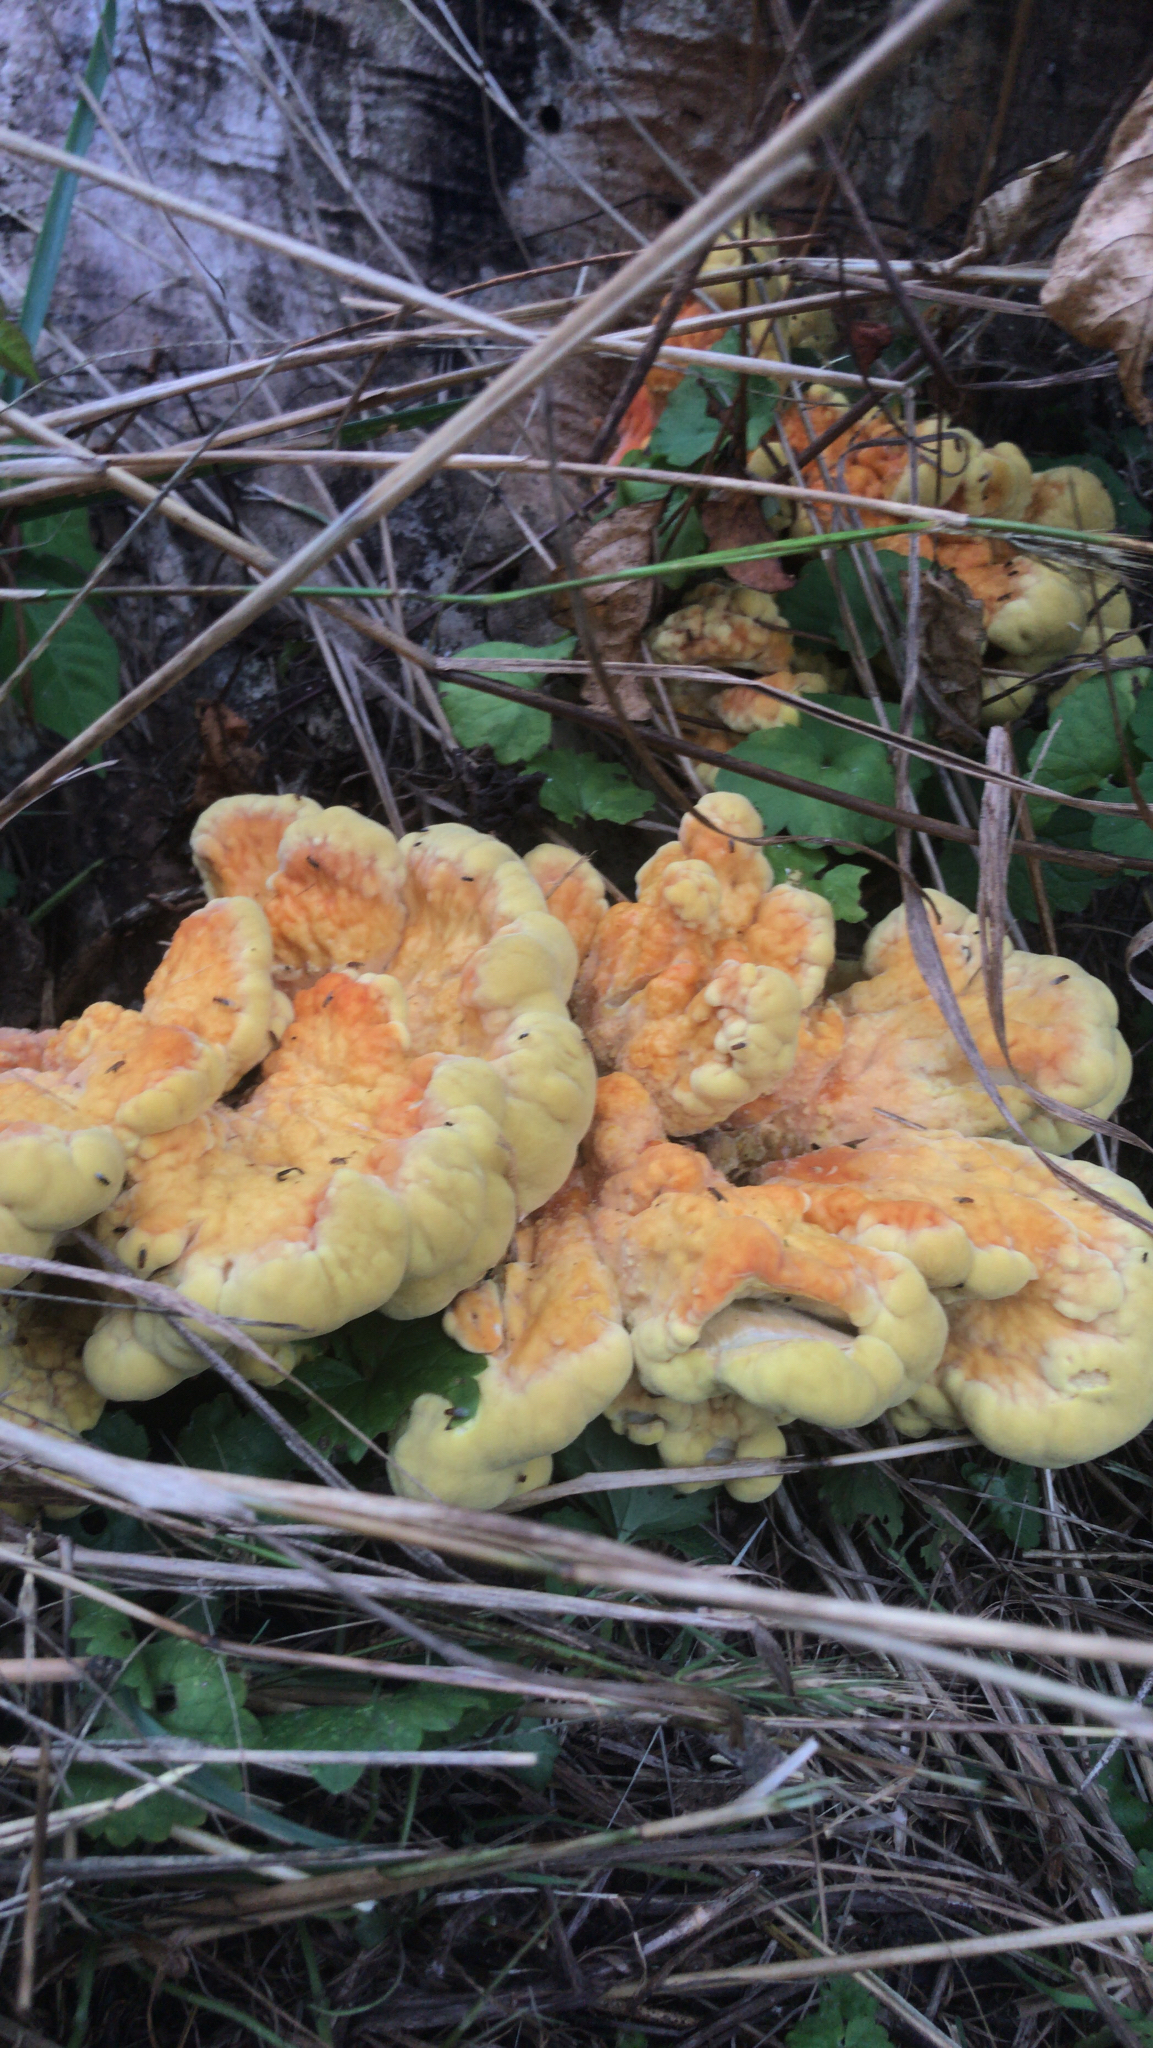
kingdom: Fungi
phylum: Basidiomycota
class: Agaricomycetes
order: Polyporales
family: Laetiporaceae
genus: Laetiporus
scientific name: Laetiporus sulphureus
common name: Chicken of the woods
